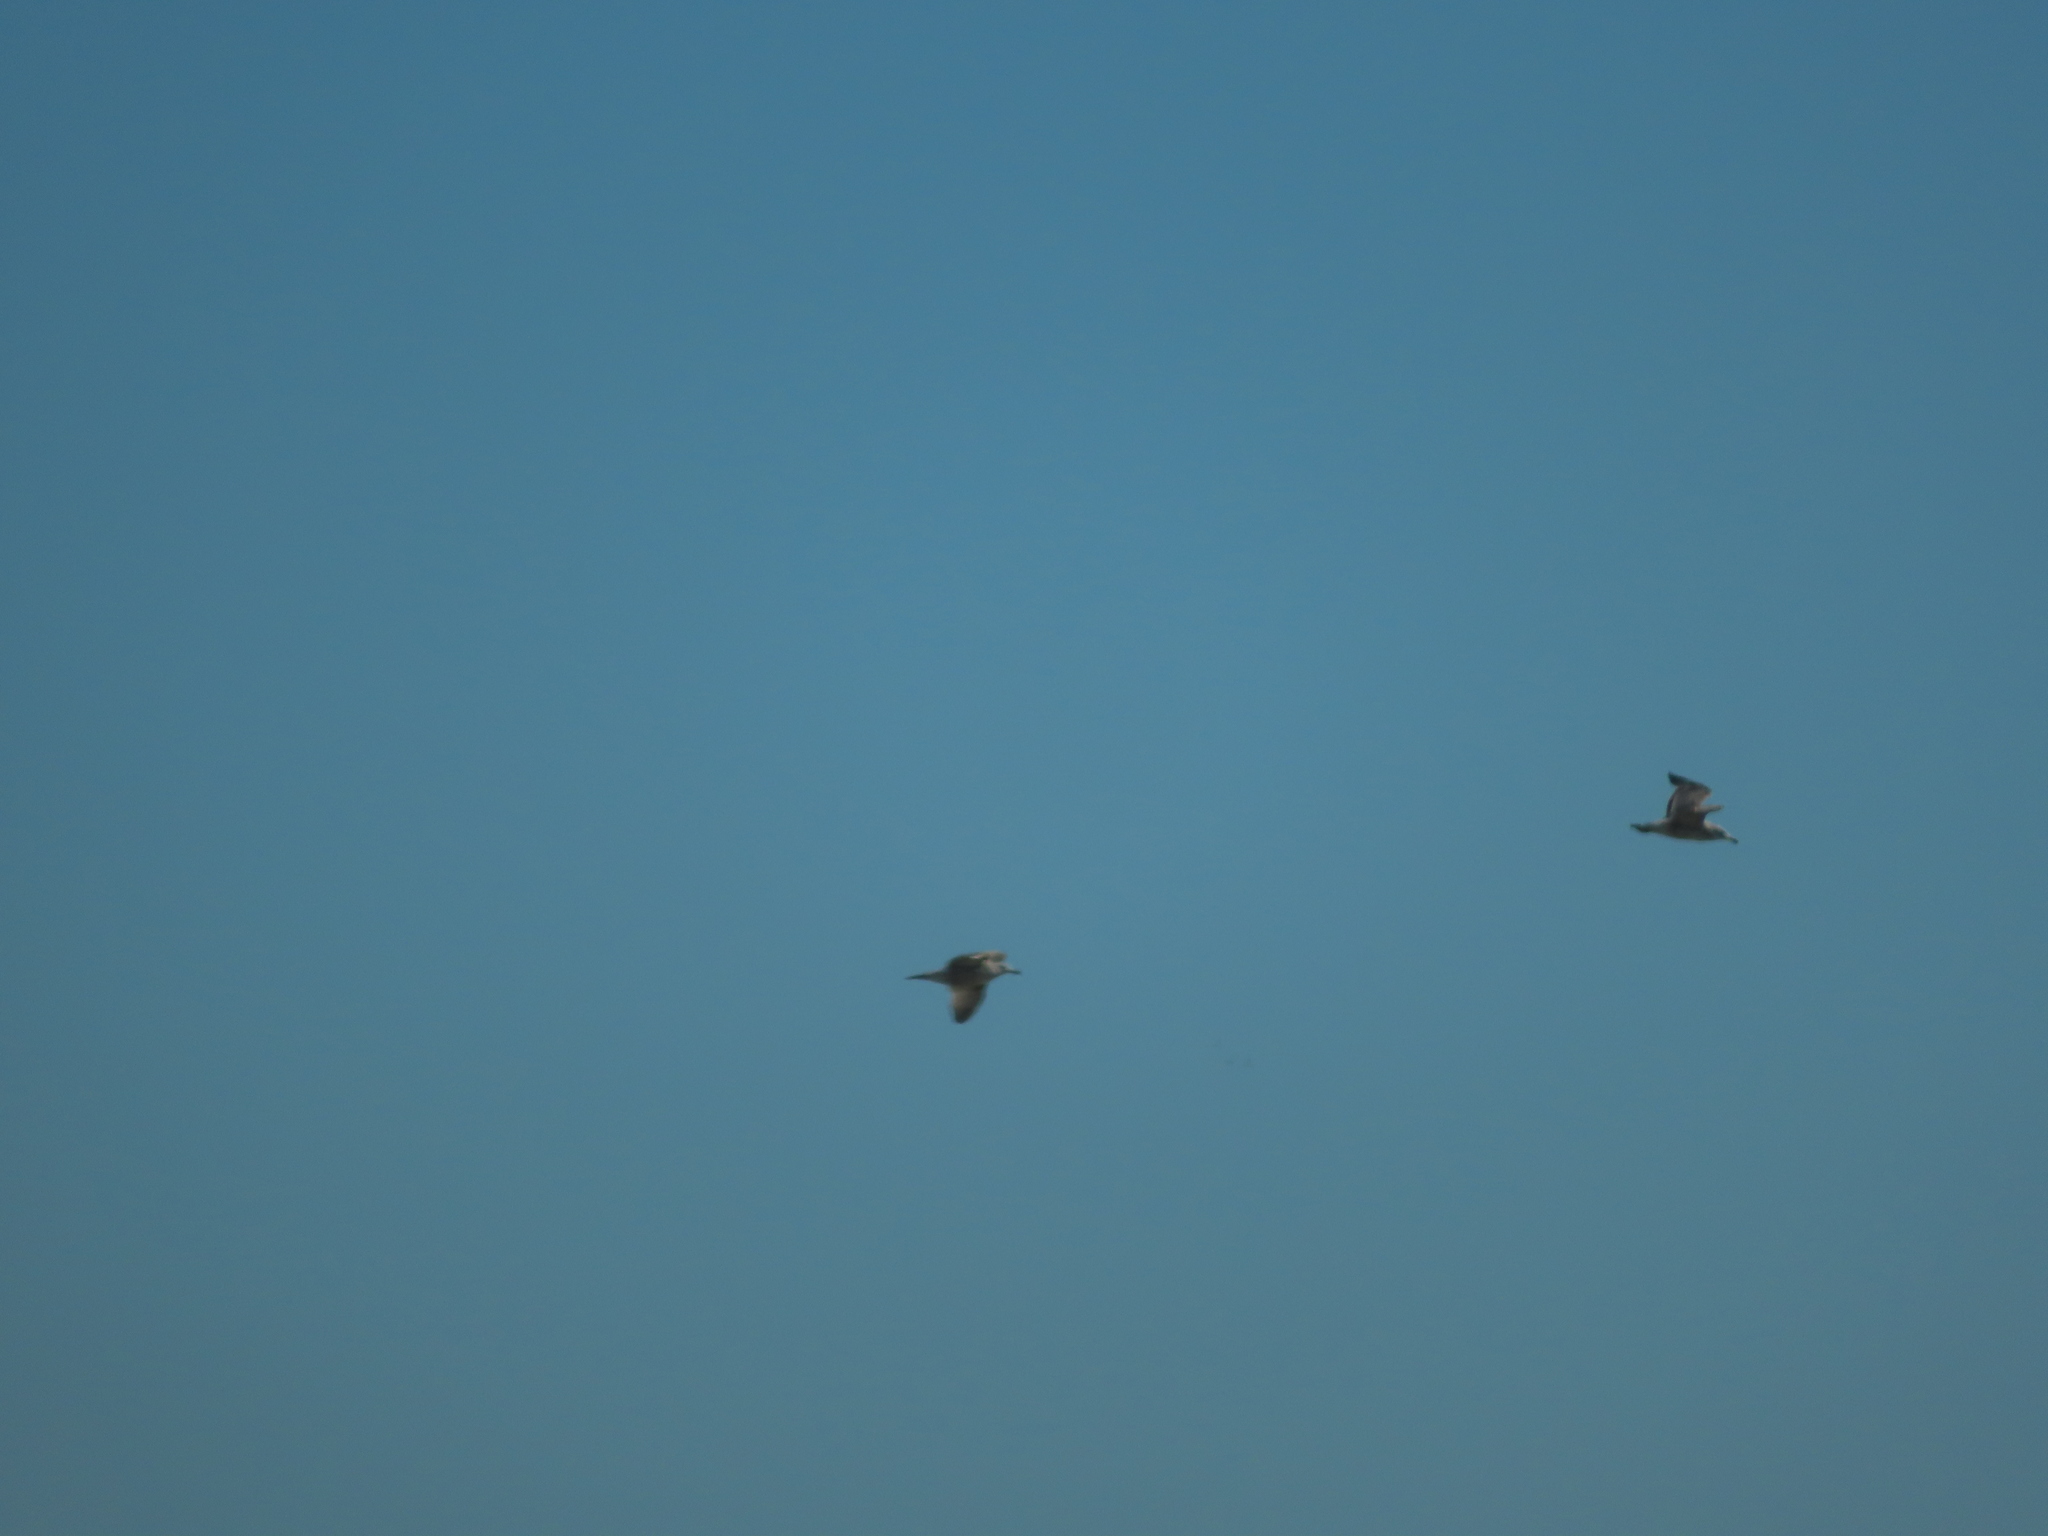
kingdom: Animalia
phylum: Chordata
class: Aves
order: Charadriiformes
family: Laridae
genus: Larus
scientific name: Larus argentatus
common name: Herring gull
